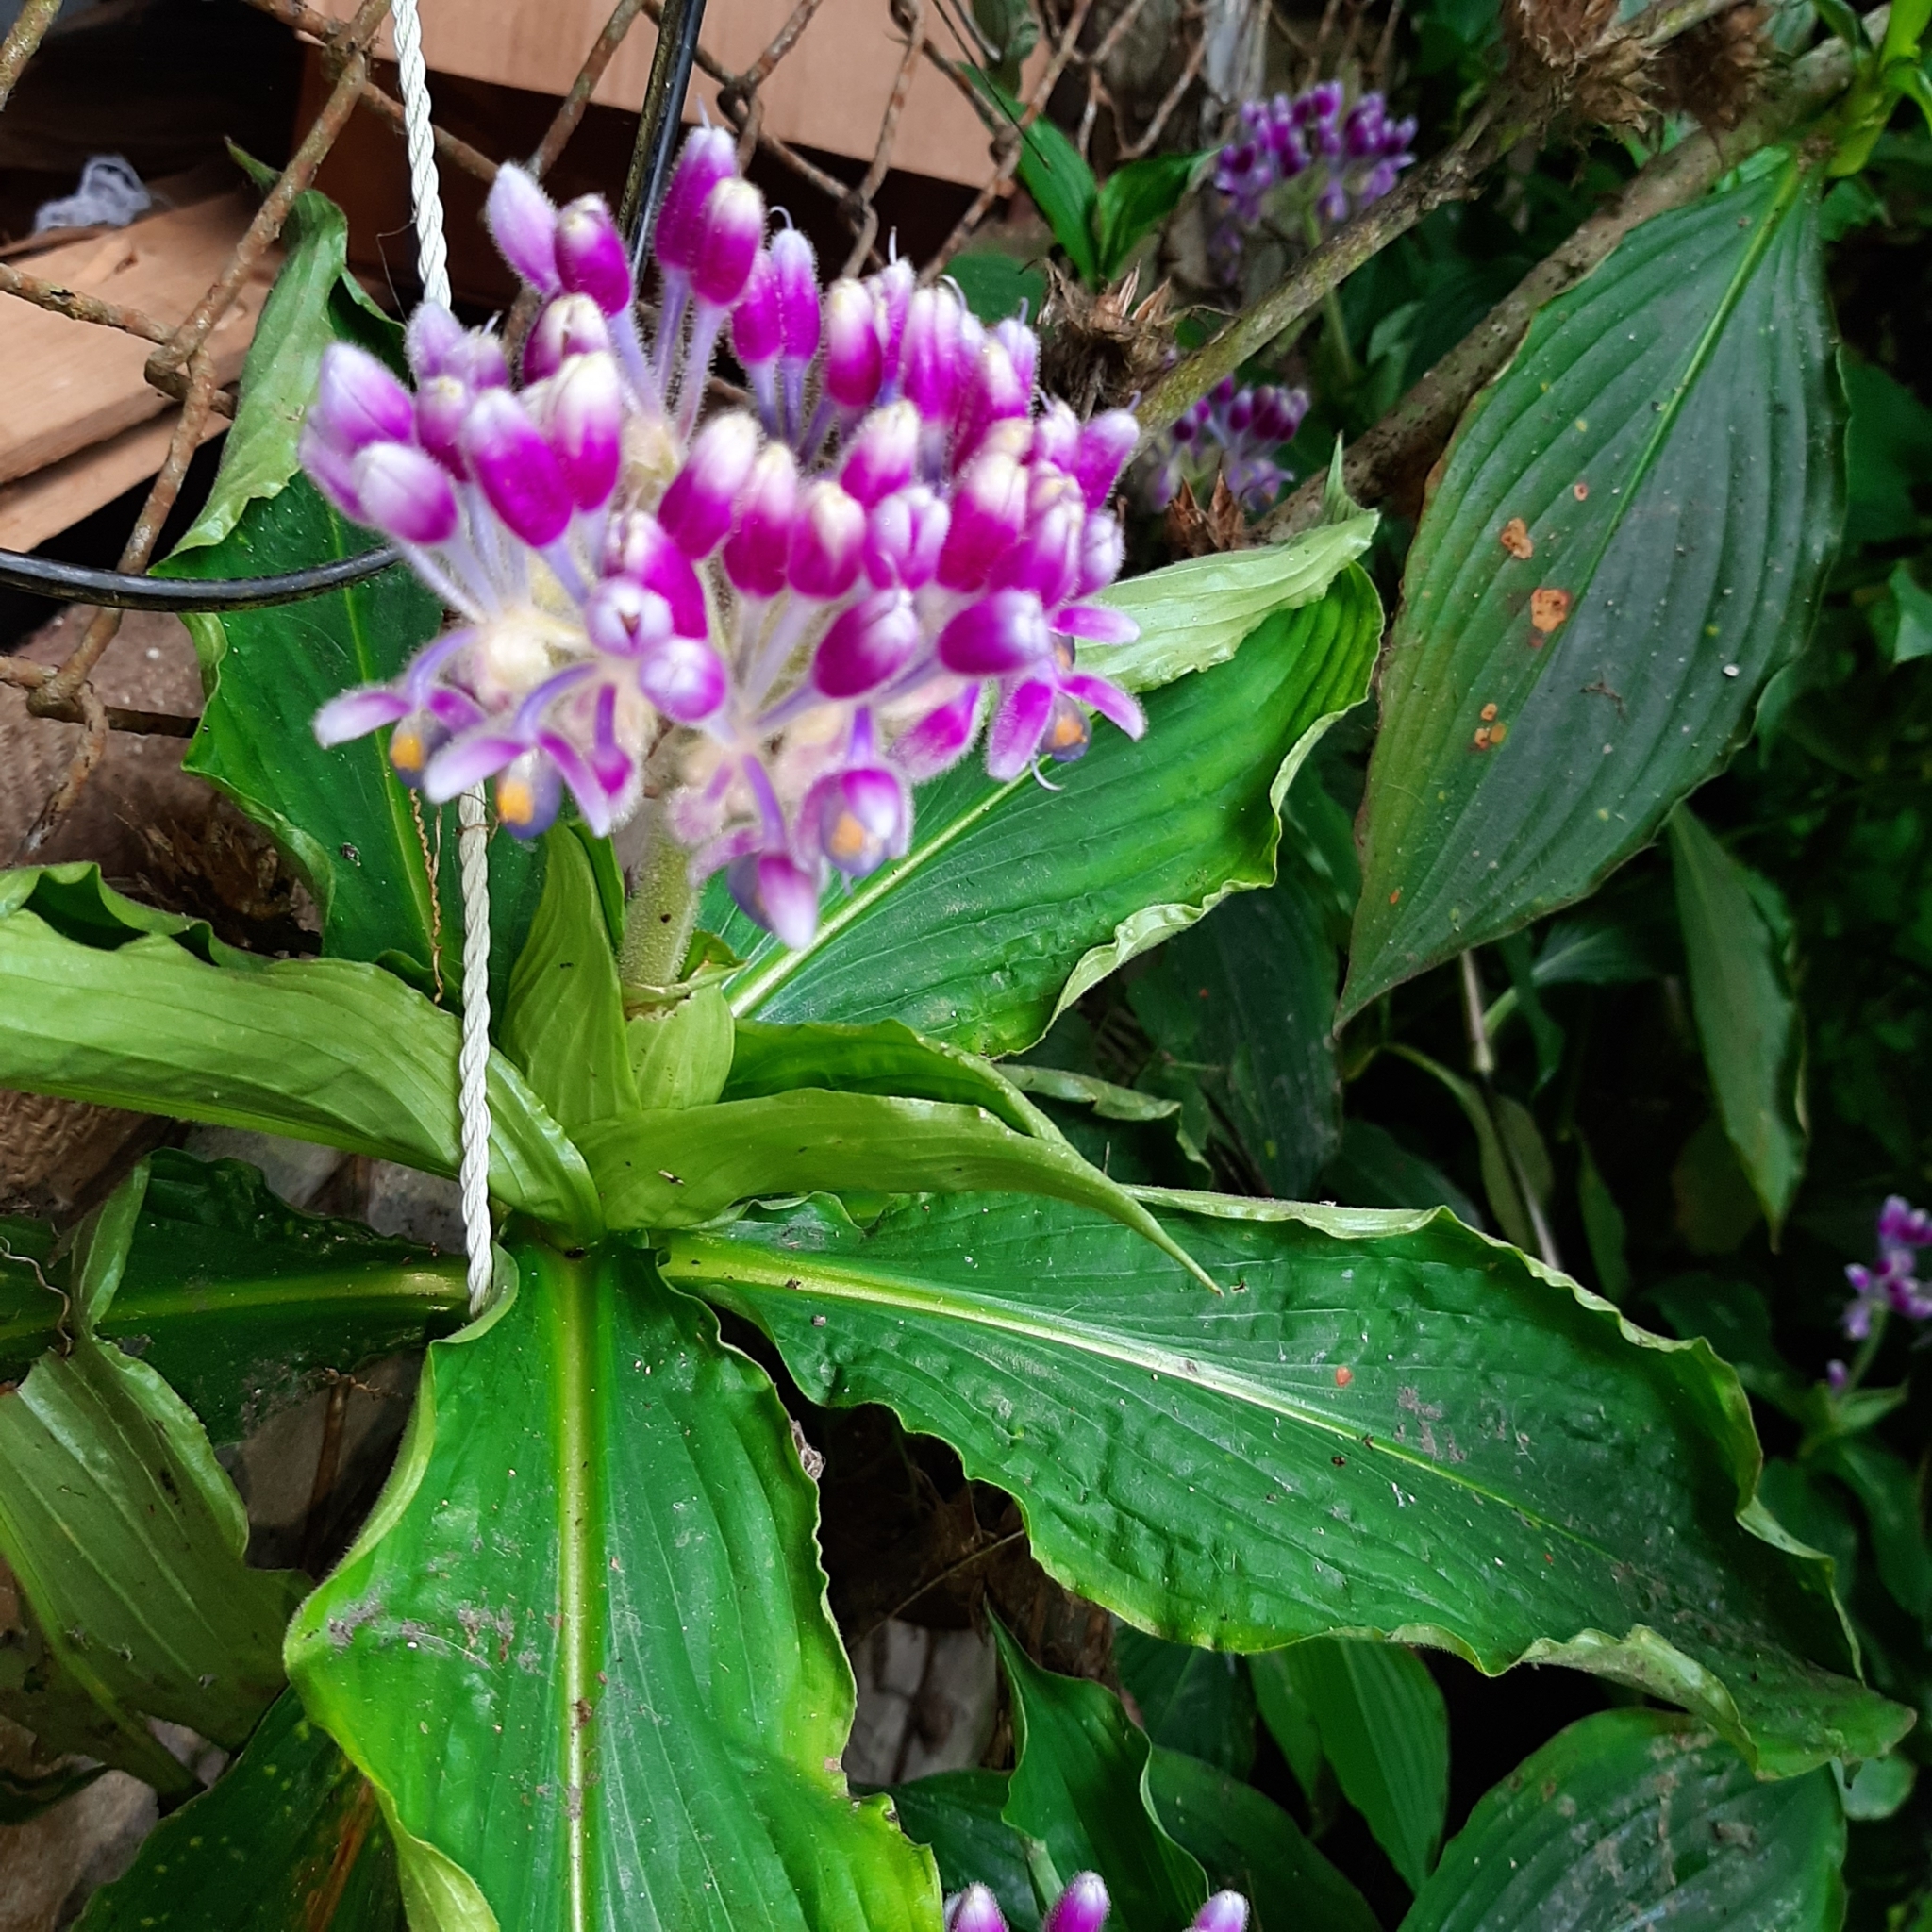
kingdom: Plantae
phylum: Tracheophyta
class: Liliopsida
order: Commelinales
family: Commelinaceae
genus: Tinantia
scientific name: Tinantia standleyi
